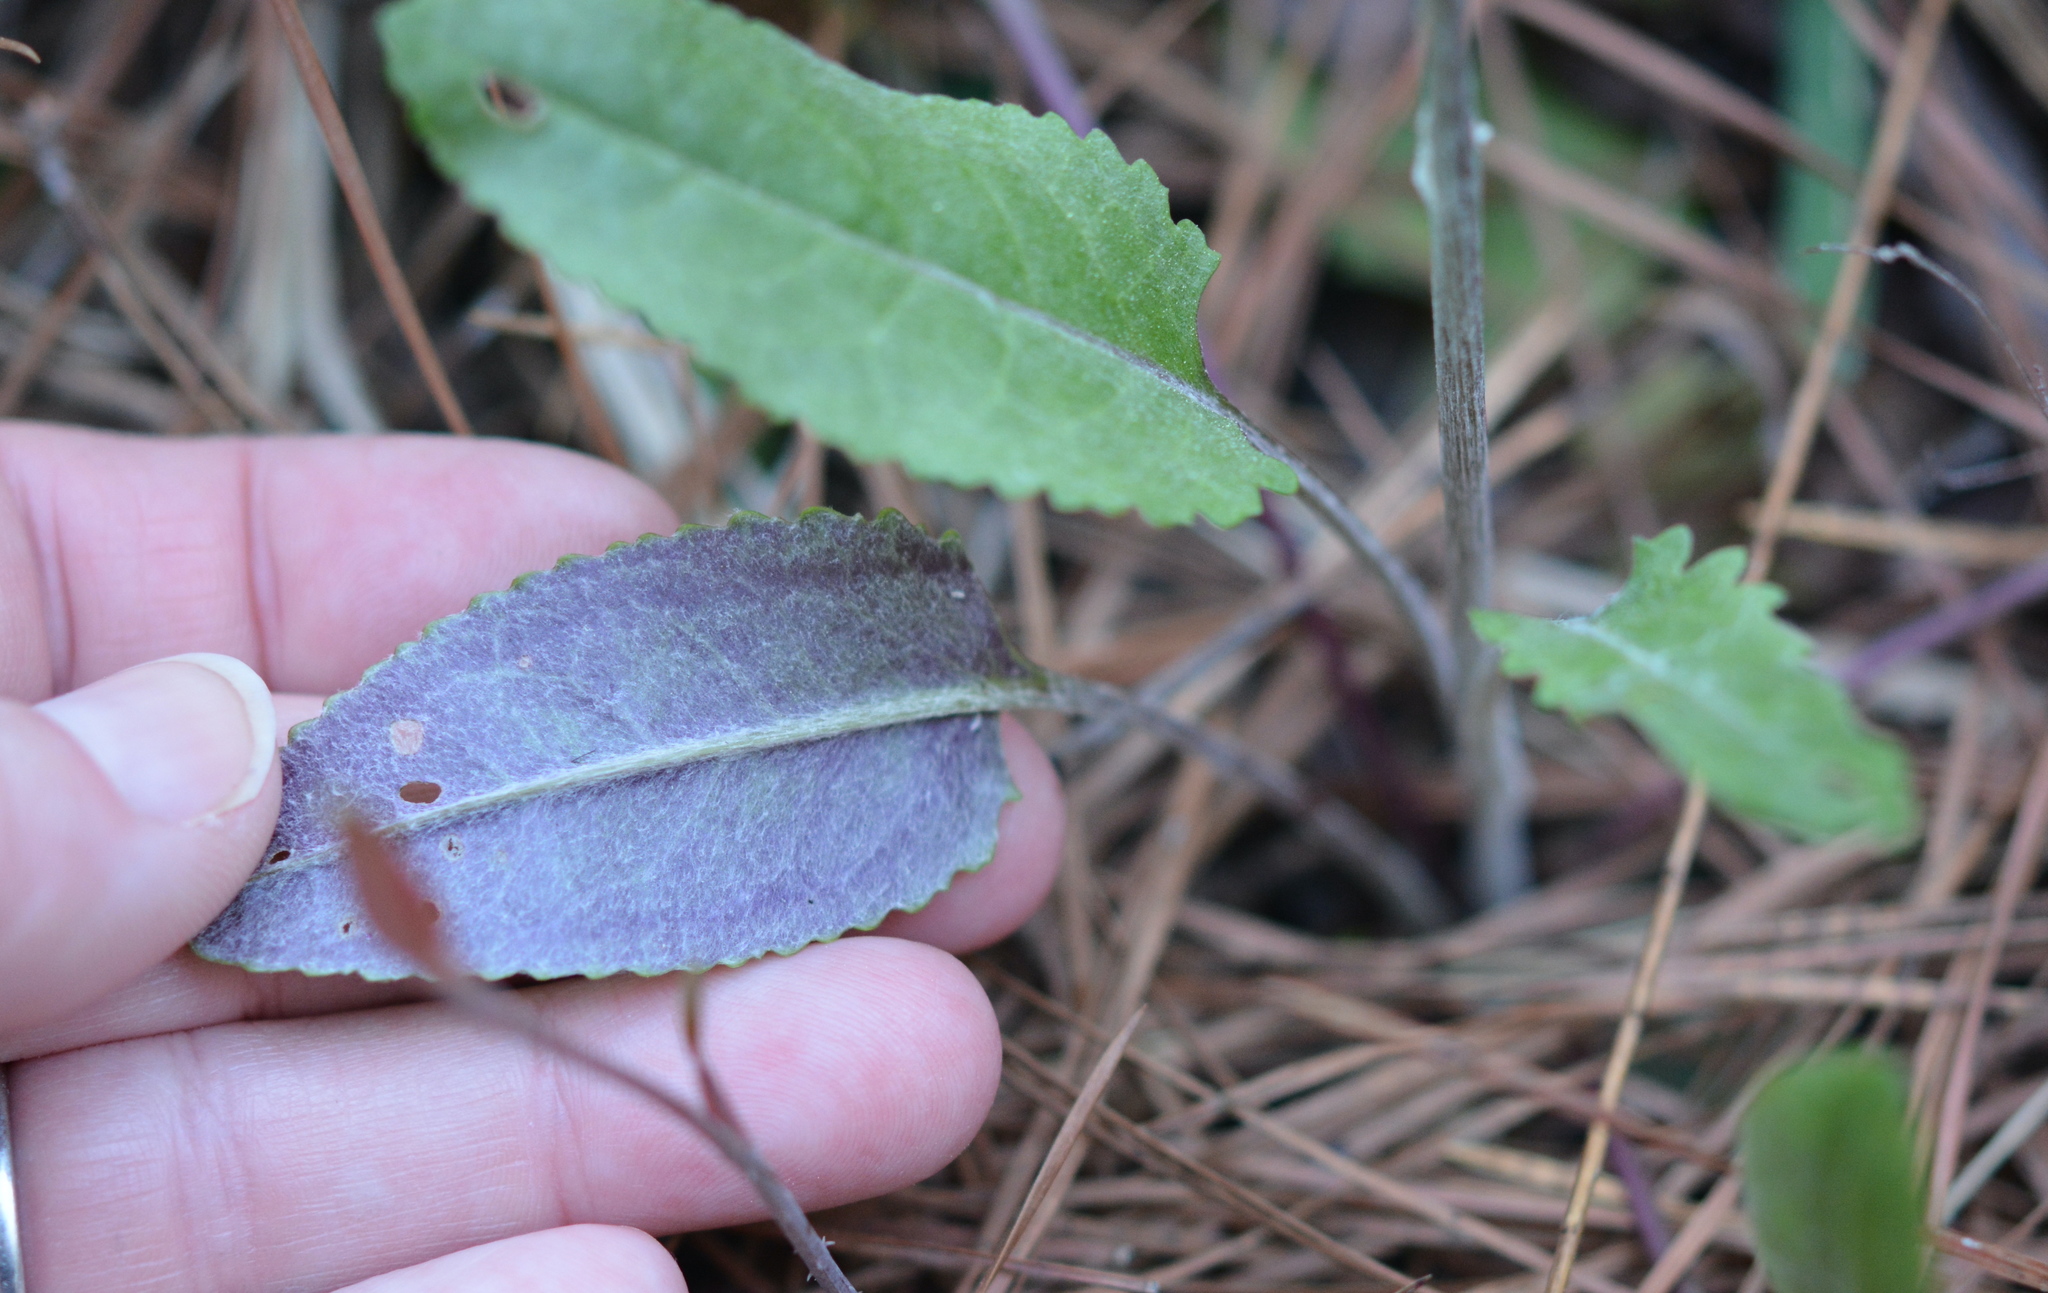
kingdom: Plantae
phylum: Tracheophyta
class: Magnoliopsida
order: Asterales
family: Asteraceae
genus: Packera
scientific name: Packera dubia
